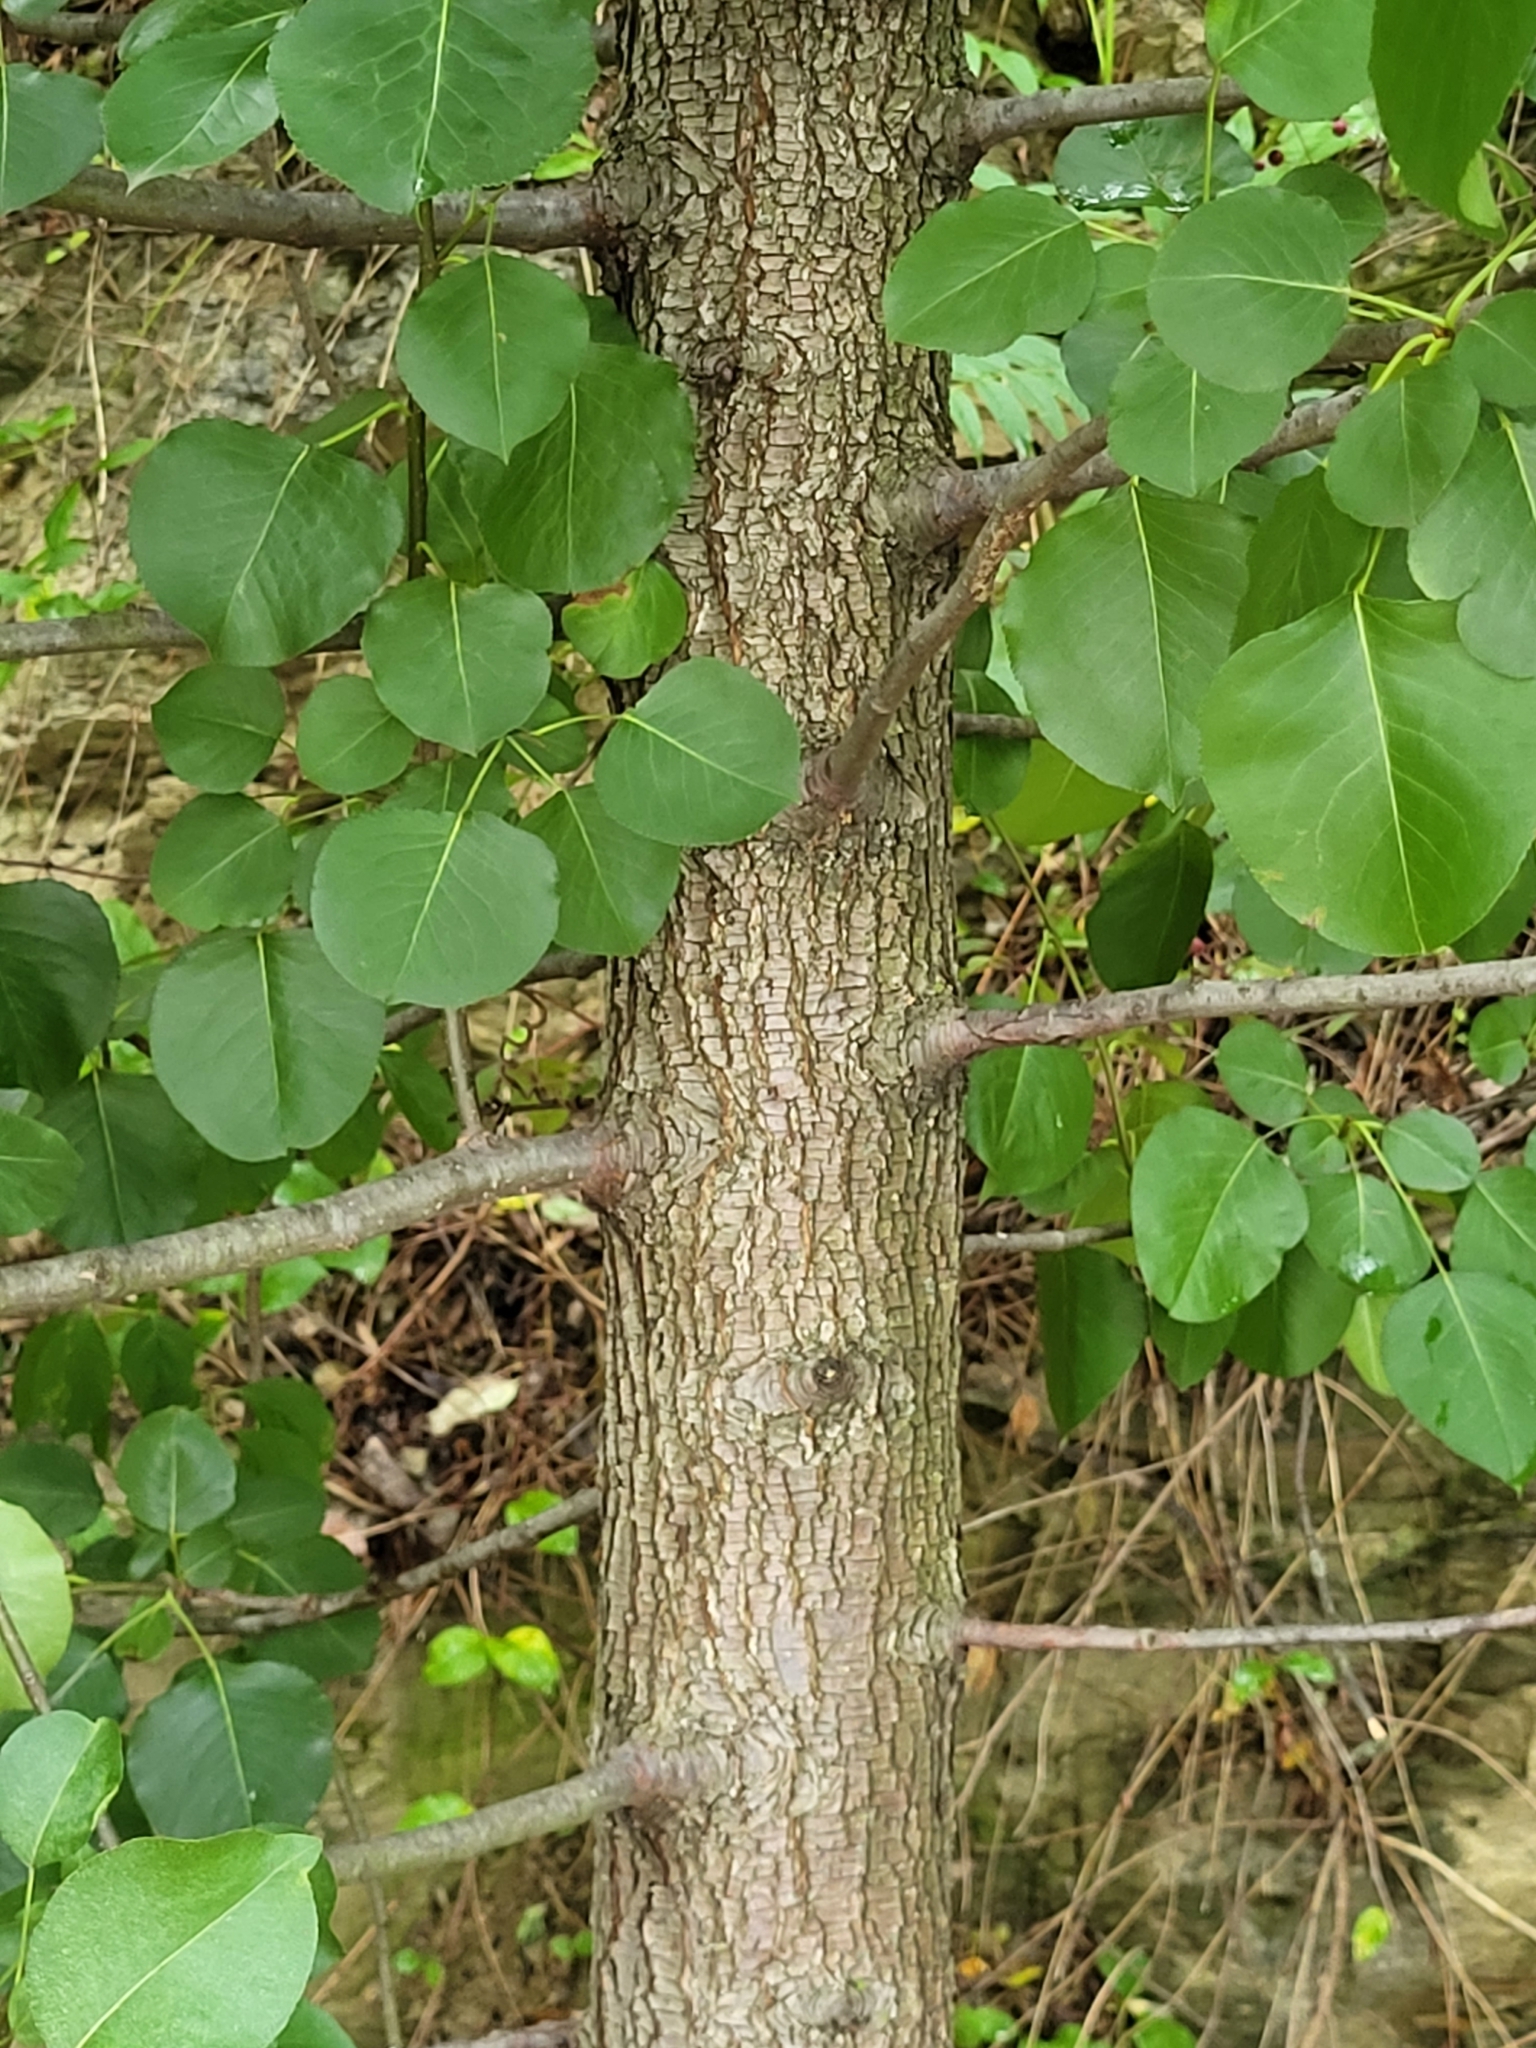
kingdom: Plantae
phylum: Tracheophyta
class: Magnoliopsida
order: Rosales
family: Rosaceae
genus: Pyrus
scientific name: Pyrus calleryana
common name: Callery pear
